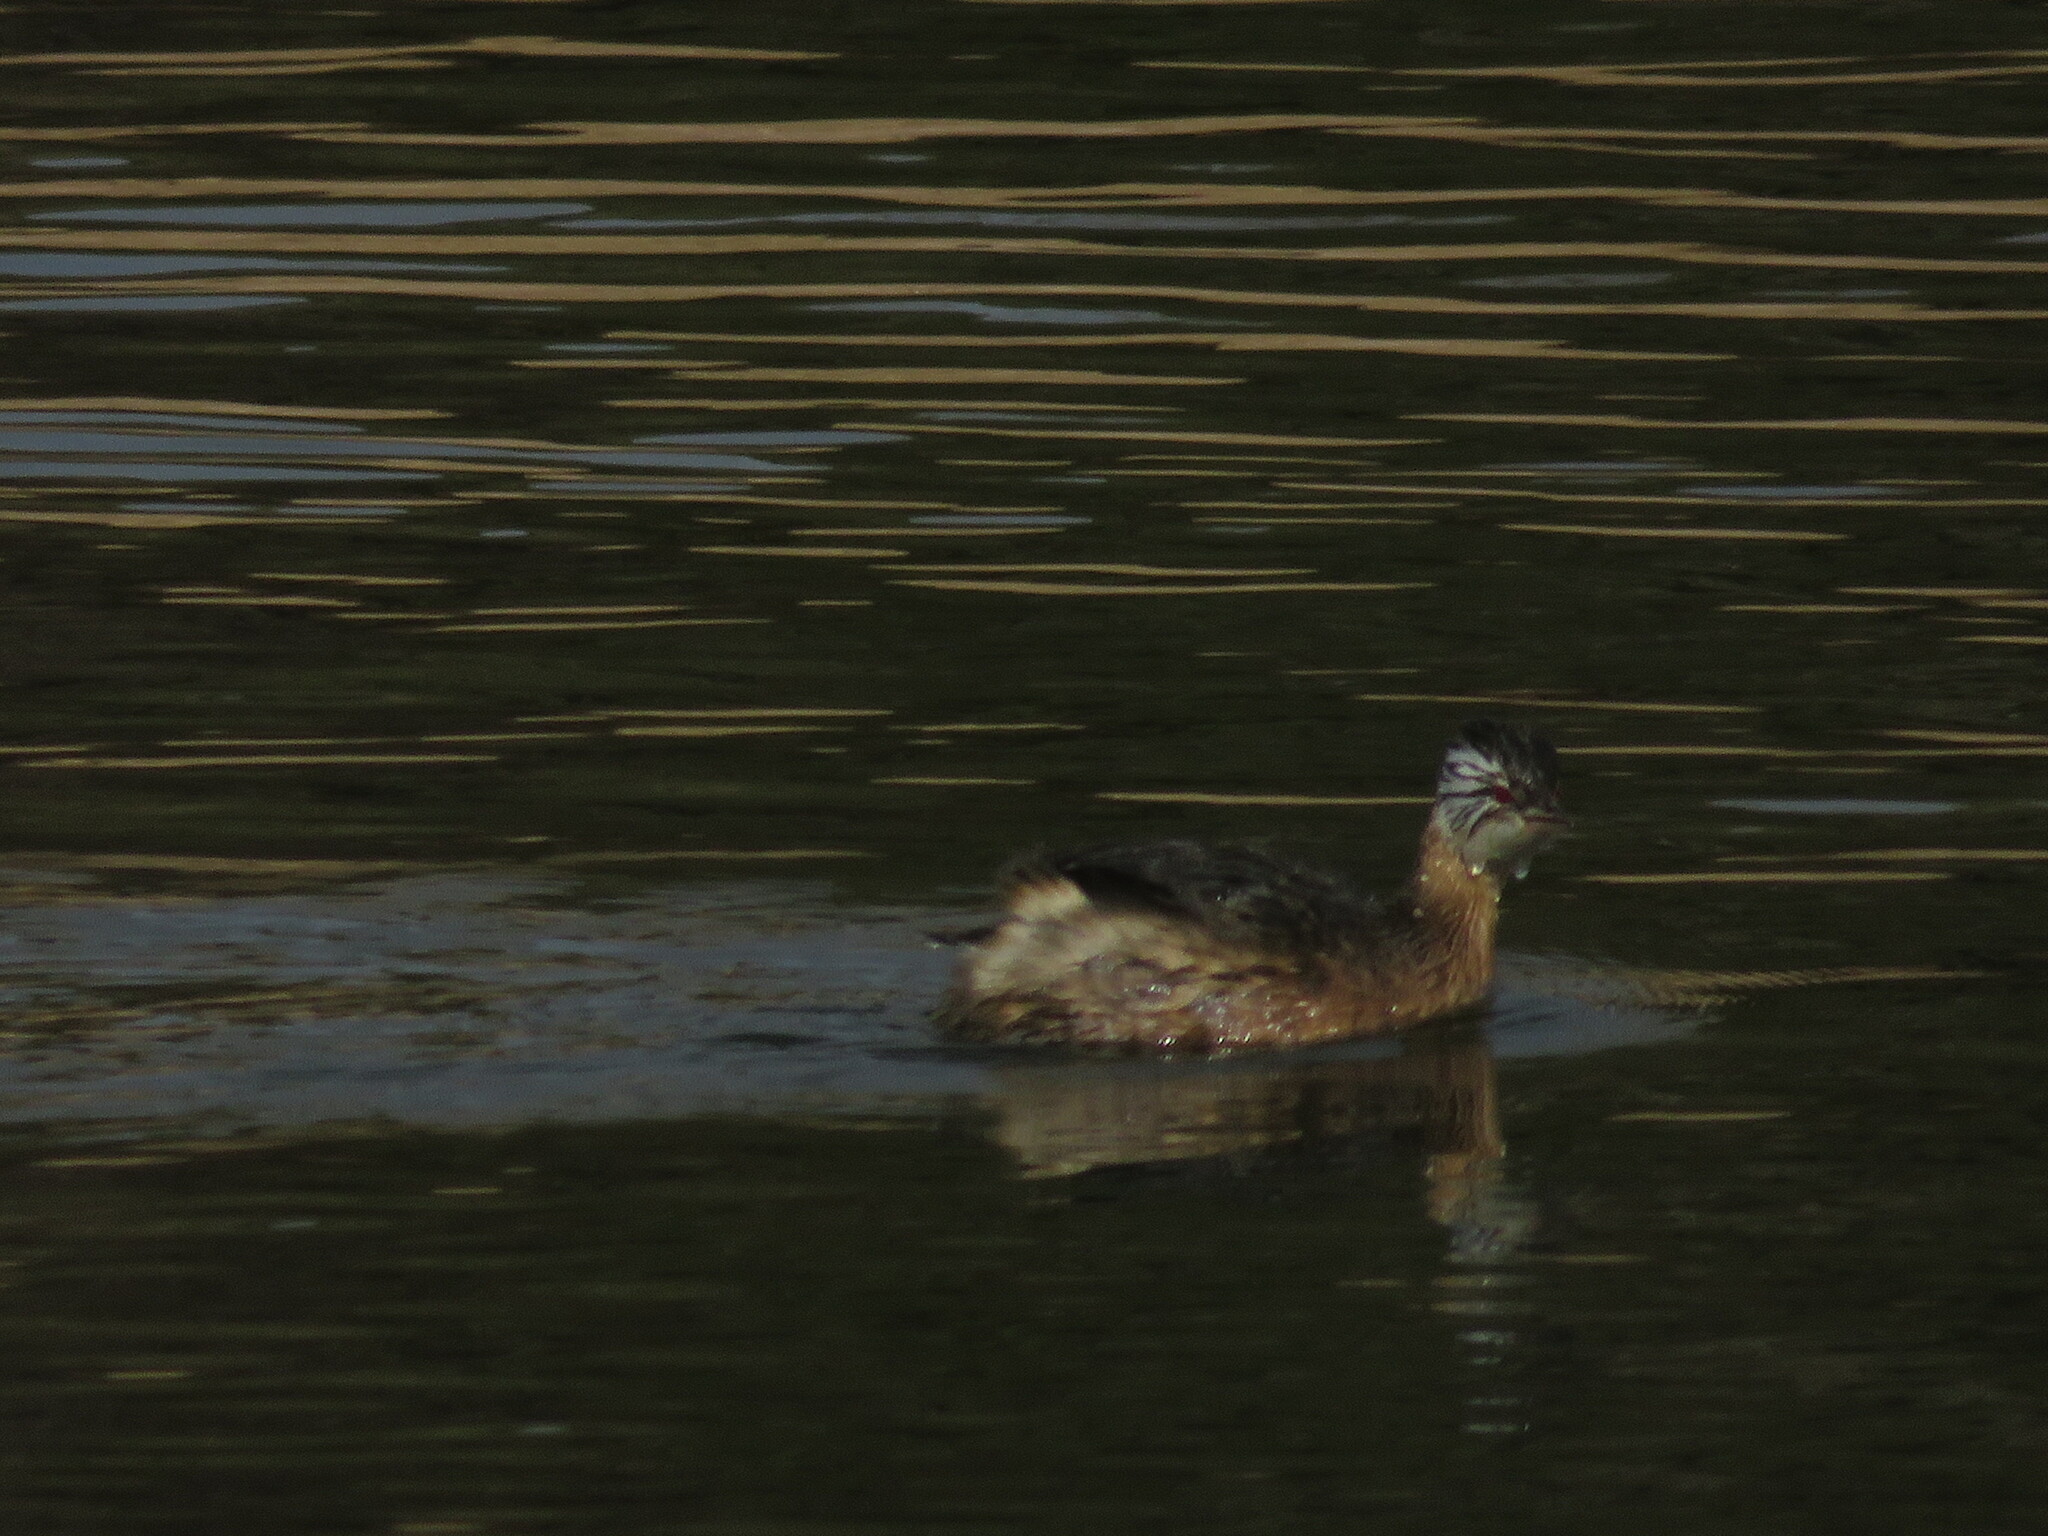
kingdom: Animalia
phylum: Chordata
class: Aves
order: Podicipediformes
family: Podicipedidae
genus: Rollandia
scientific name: Rollandia rolland
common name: White-tufted grebe
